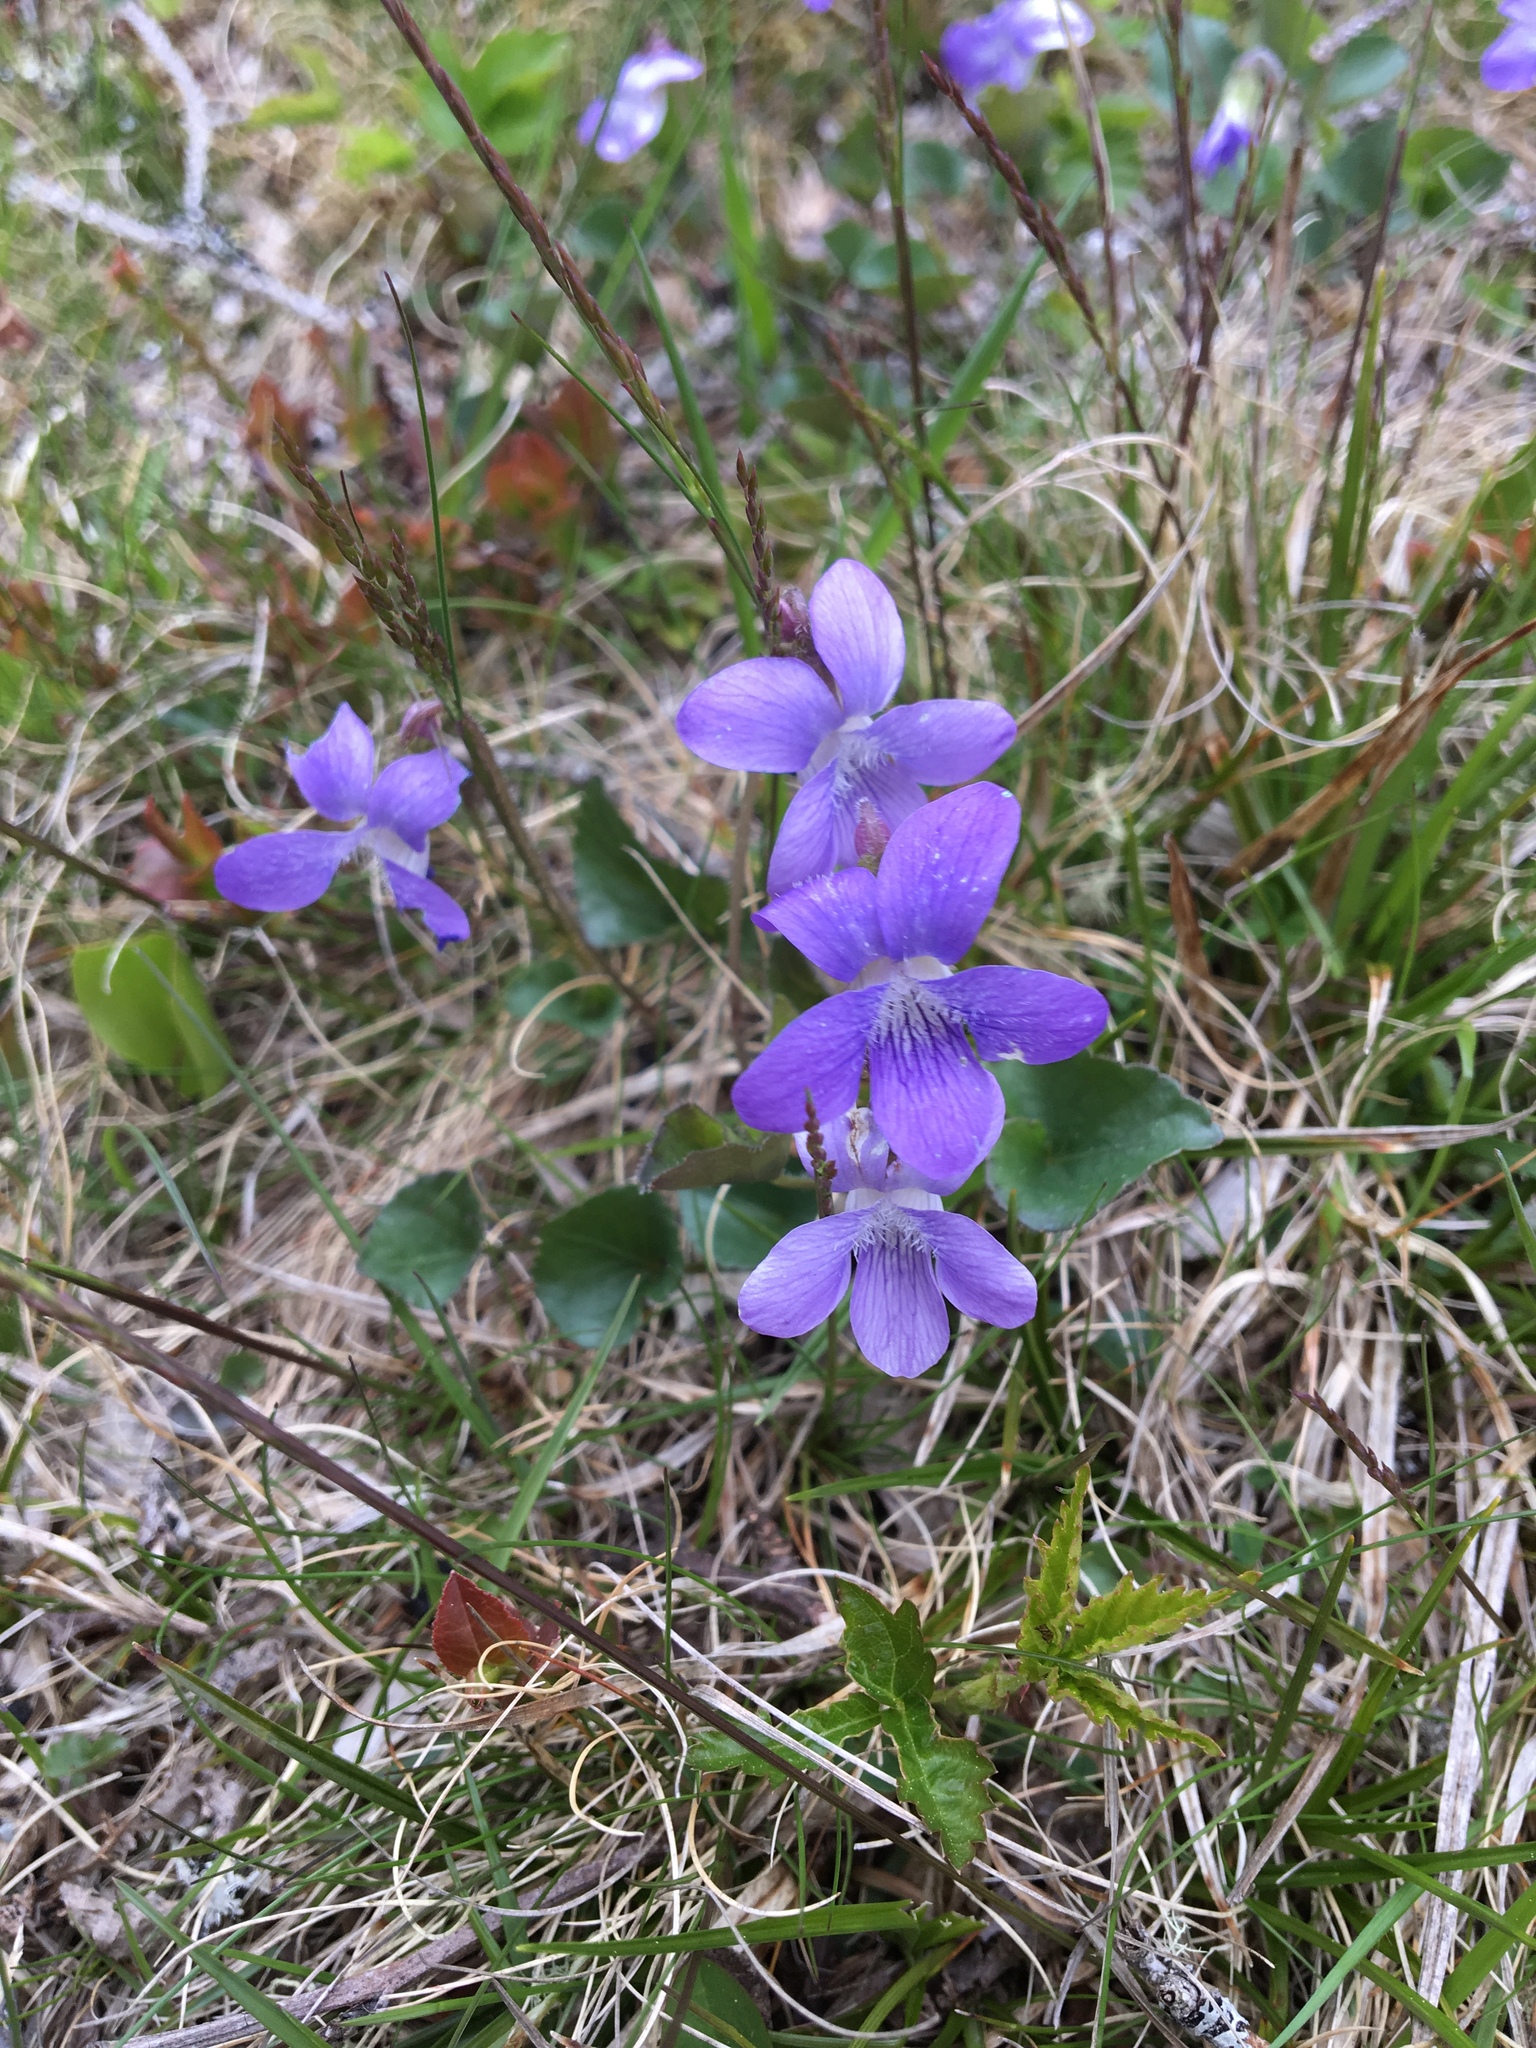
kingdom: Plantae
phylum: Tracheophyta
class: Magnoliopsida
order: Malpighiales
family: Violaceae
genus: Viola
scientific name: Viola sororia
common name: Dooryard violet
